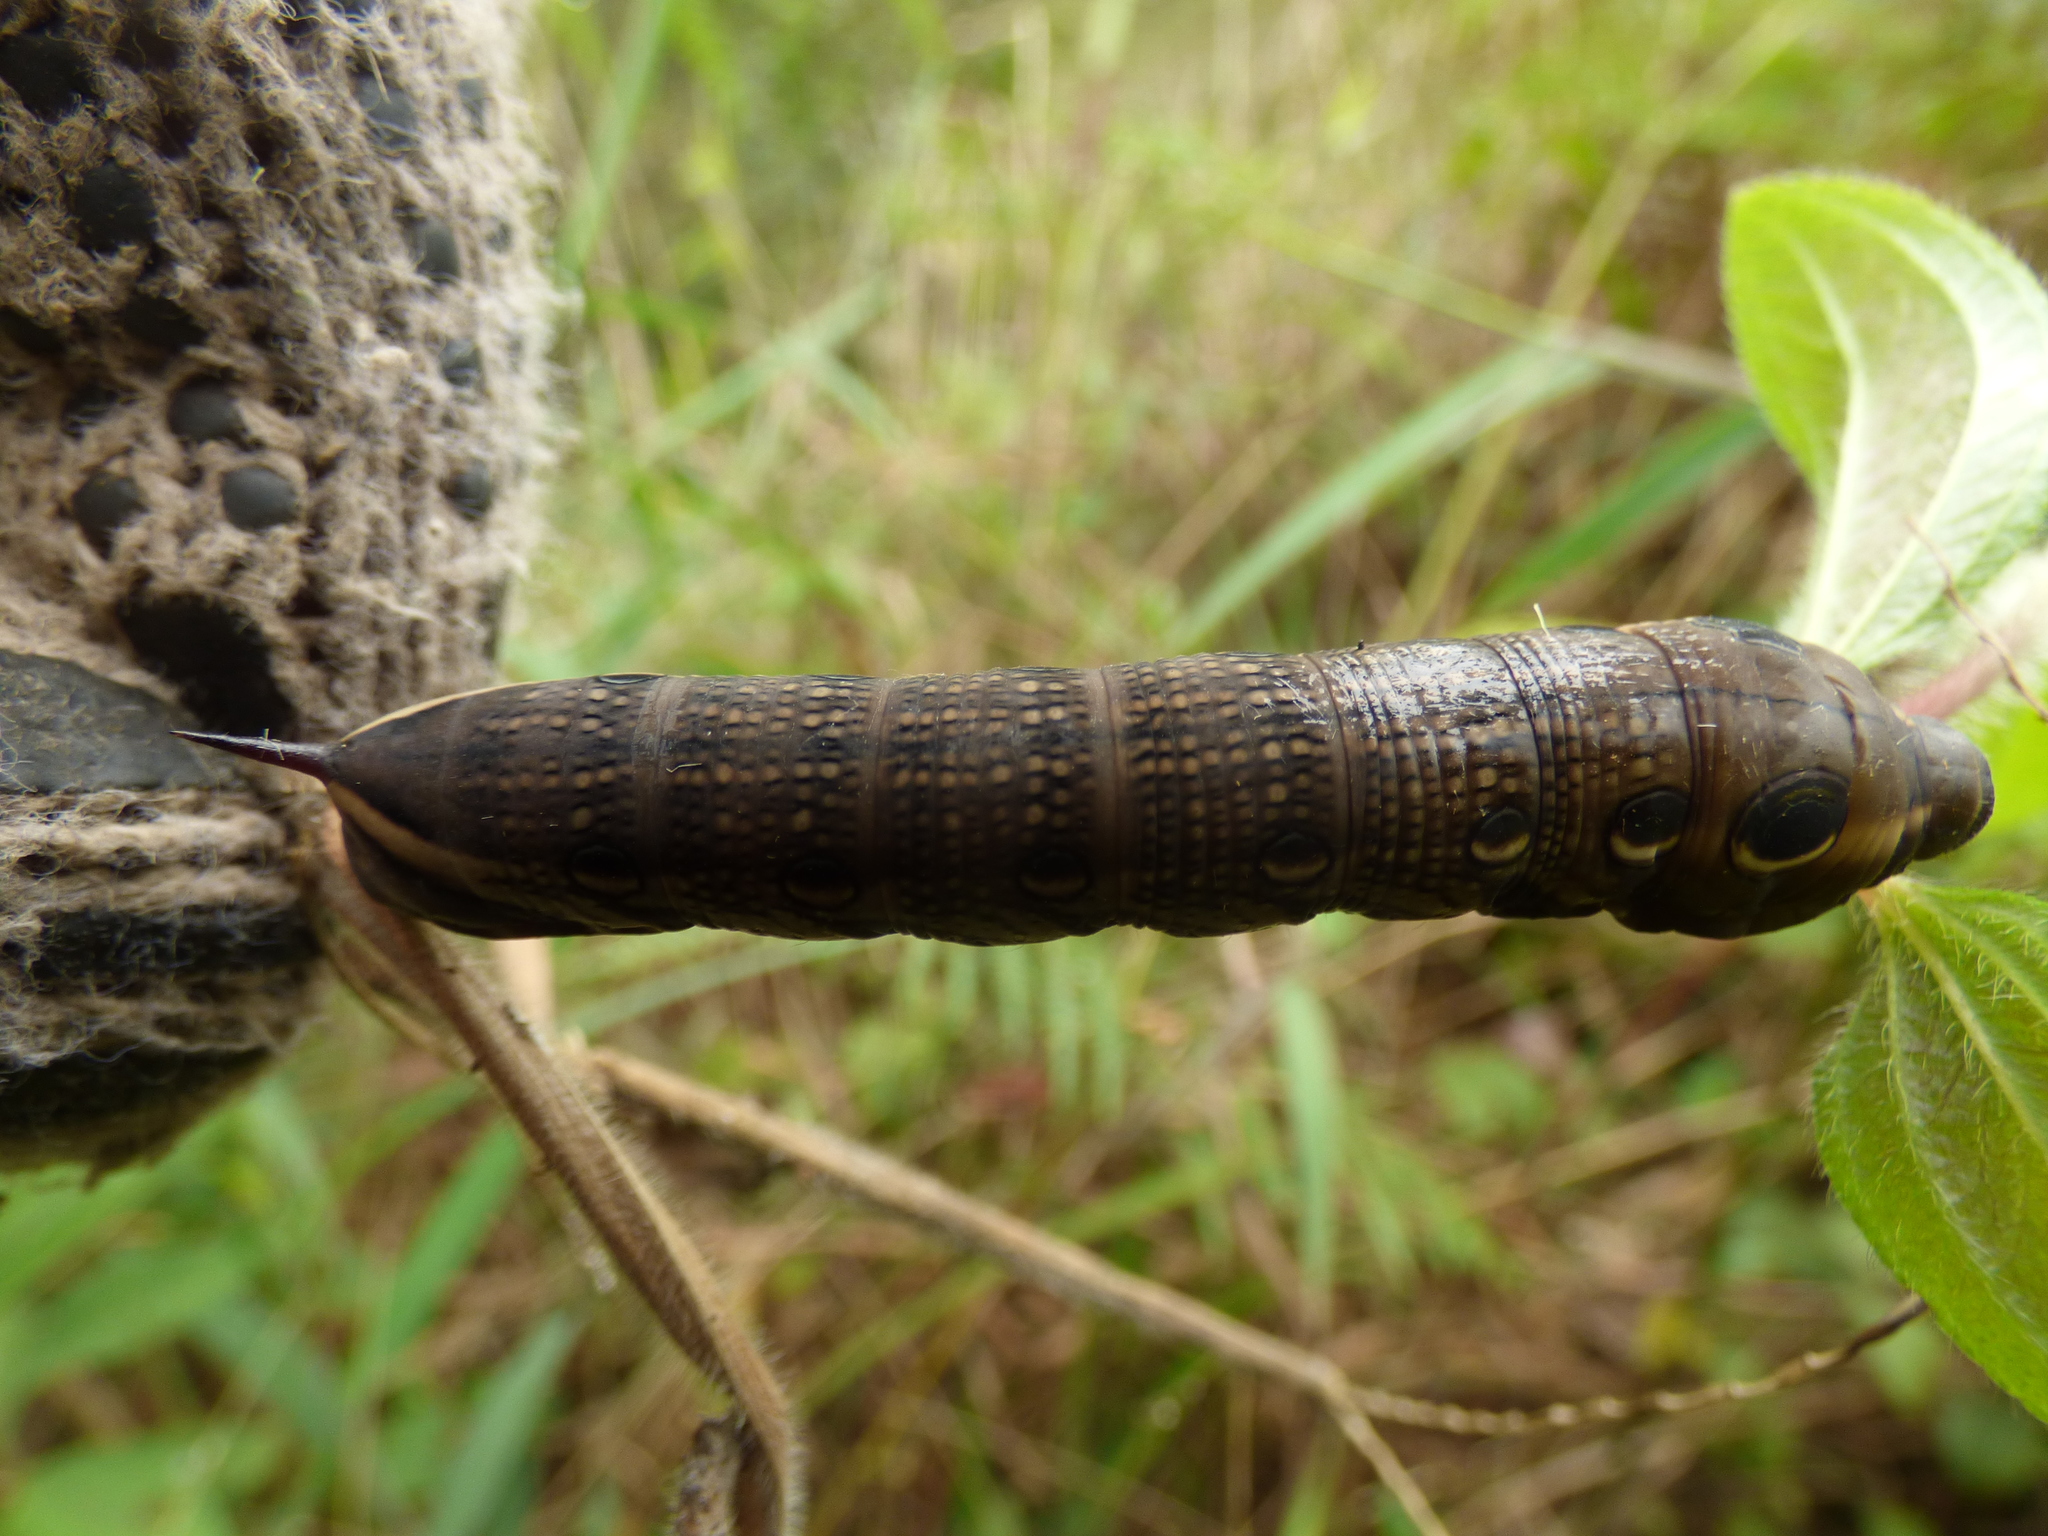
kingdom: Animalia
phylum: Arthropoda
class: Insecta
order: Lepidoptera
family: Sphingidae
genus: Xylophanes
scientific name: Xylophanes tersa
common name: Tersa sphinx
